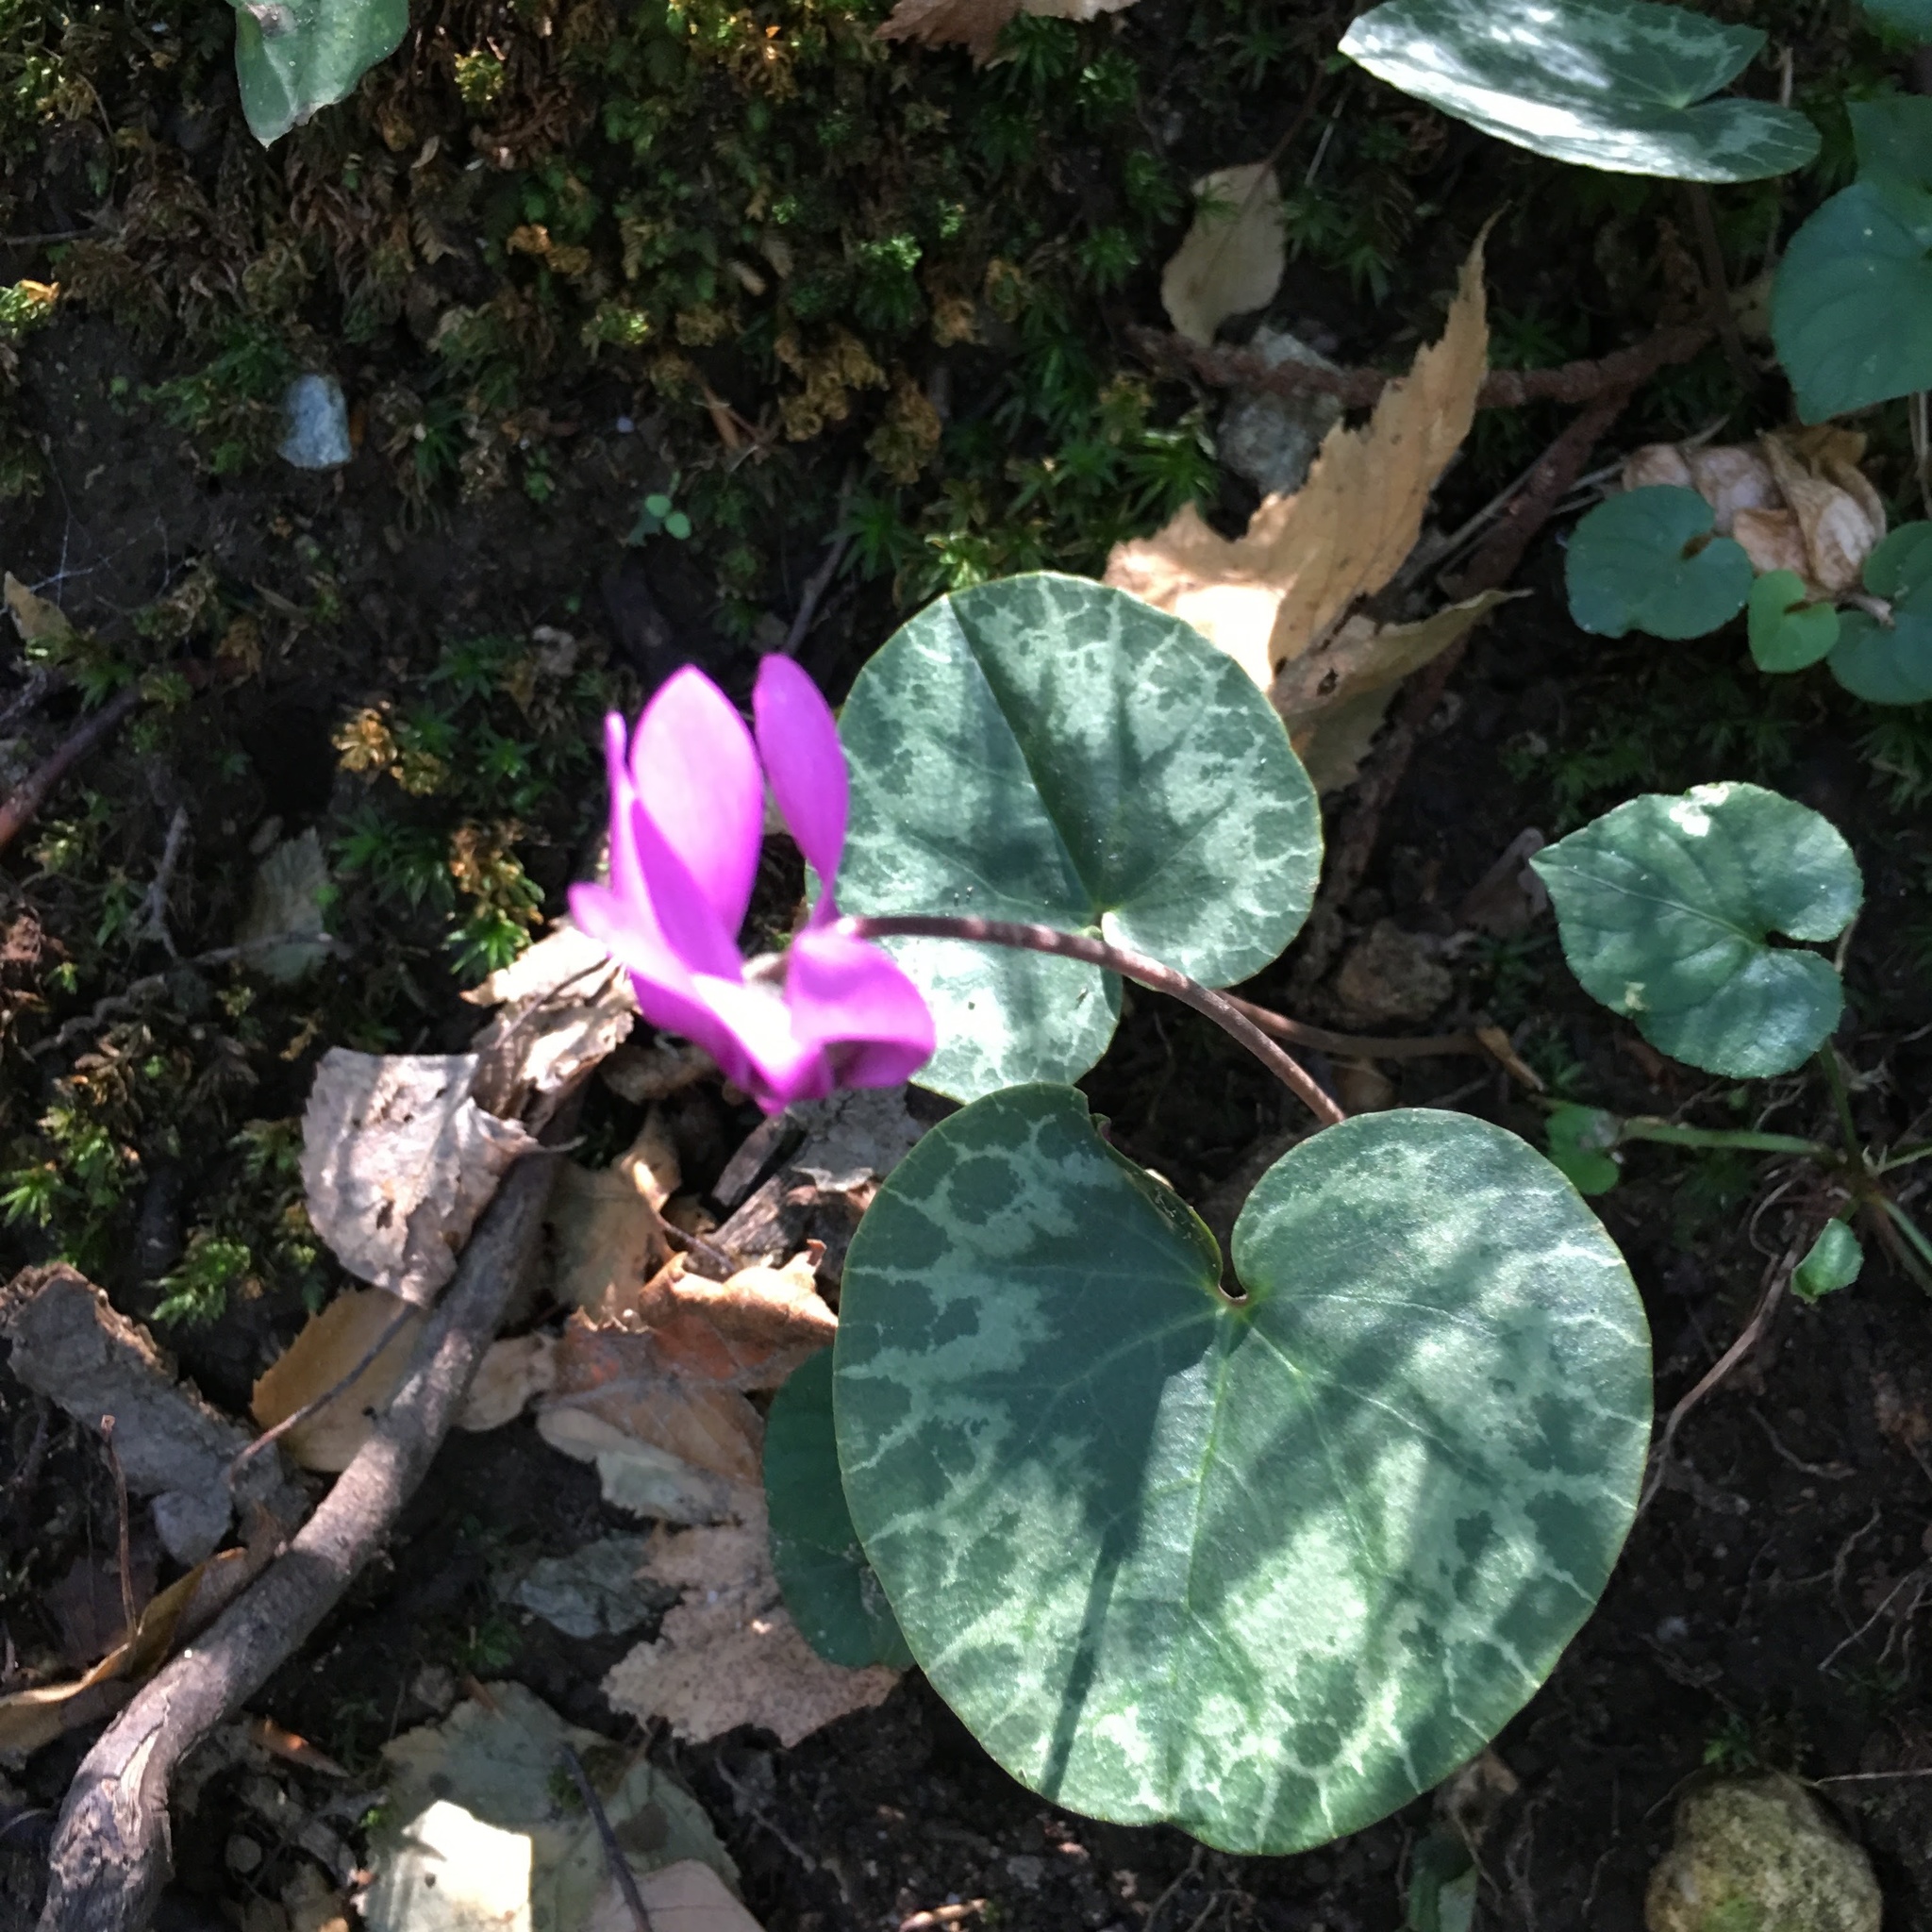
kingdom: Plantae
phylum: Tracheophyta
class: Magnoliopsida
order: Ericales
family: Primulaceae
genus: Cyclamen
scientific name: Cyclamen purpurascens
